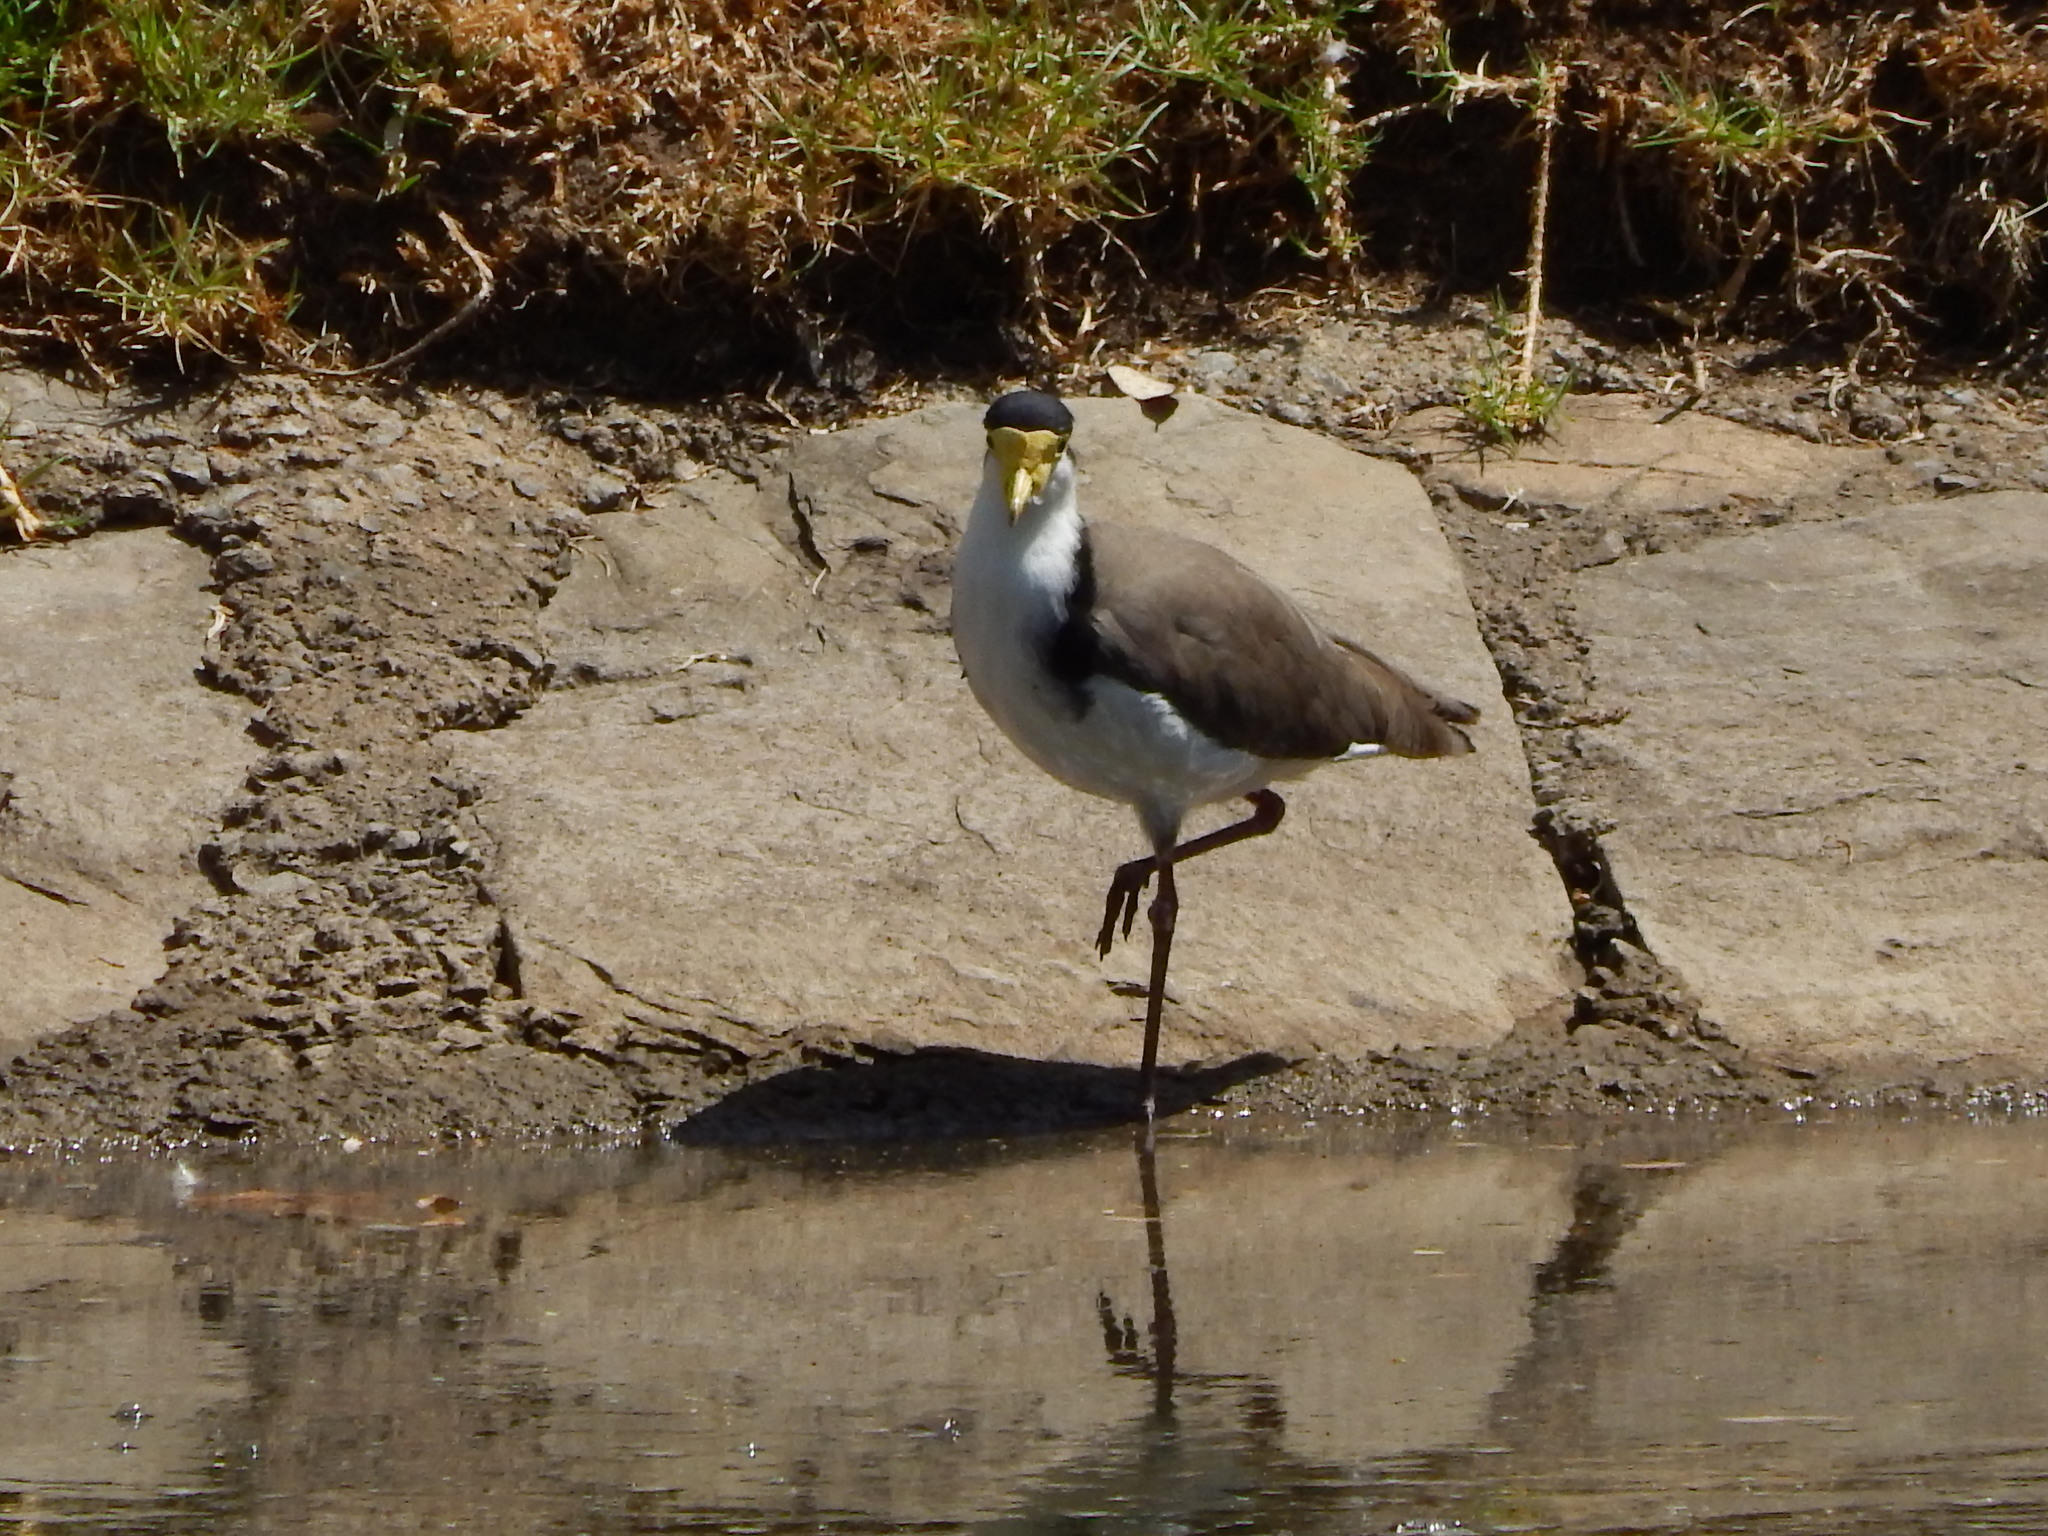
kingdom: Animalia
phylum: Chordata
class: Aves
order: Charadriiformes
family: Charadriidae
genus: Vanellus
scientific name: Vanellus miles
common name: Masked lapwing
